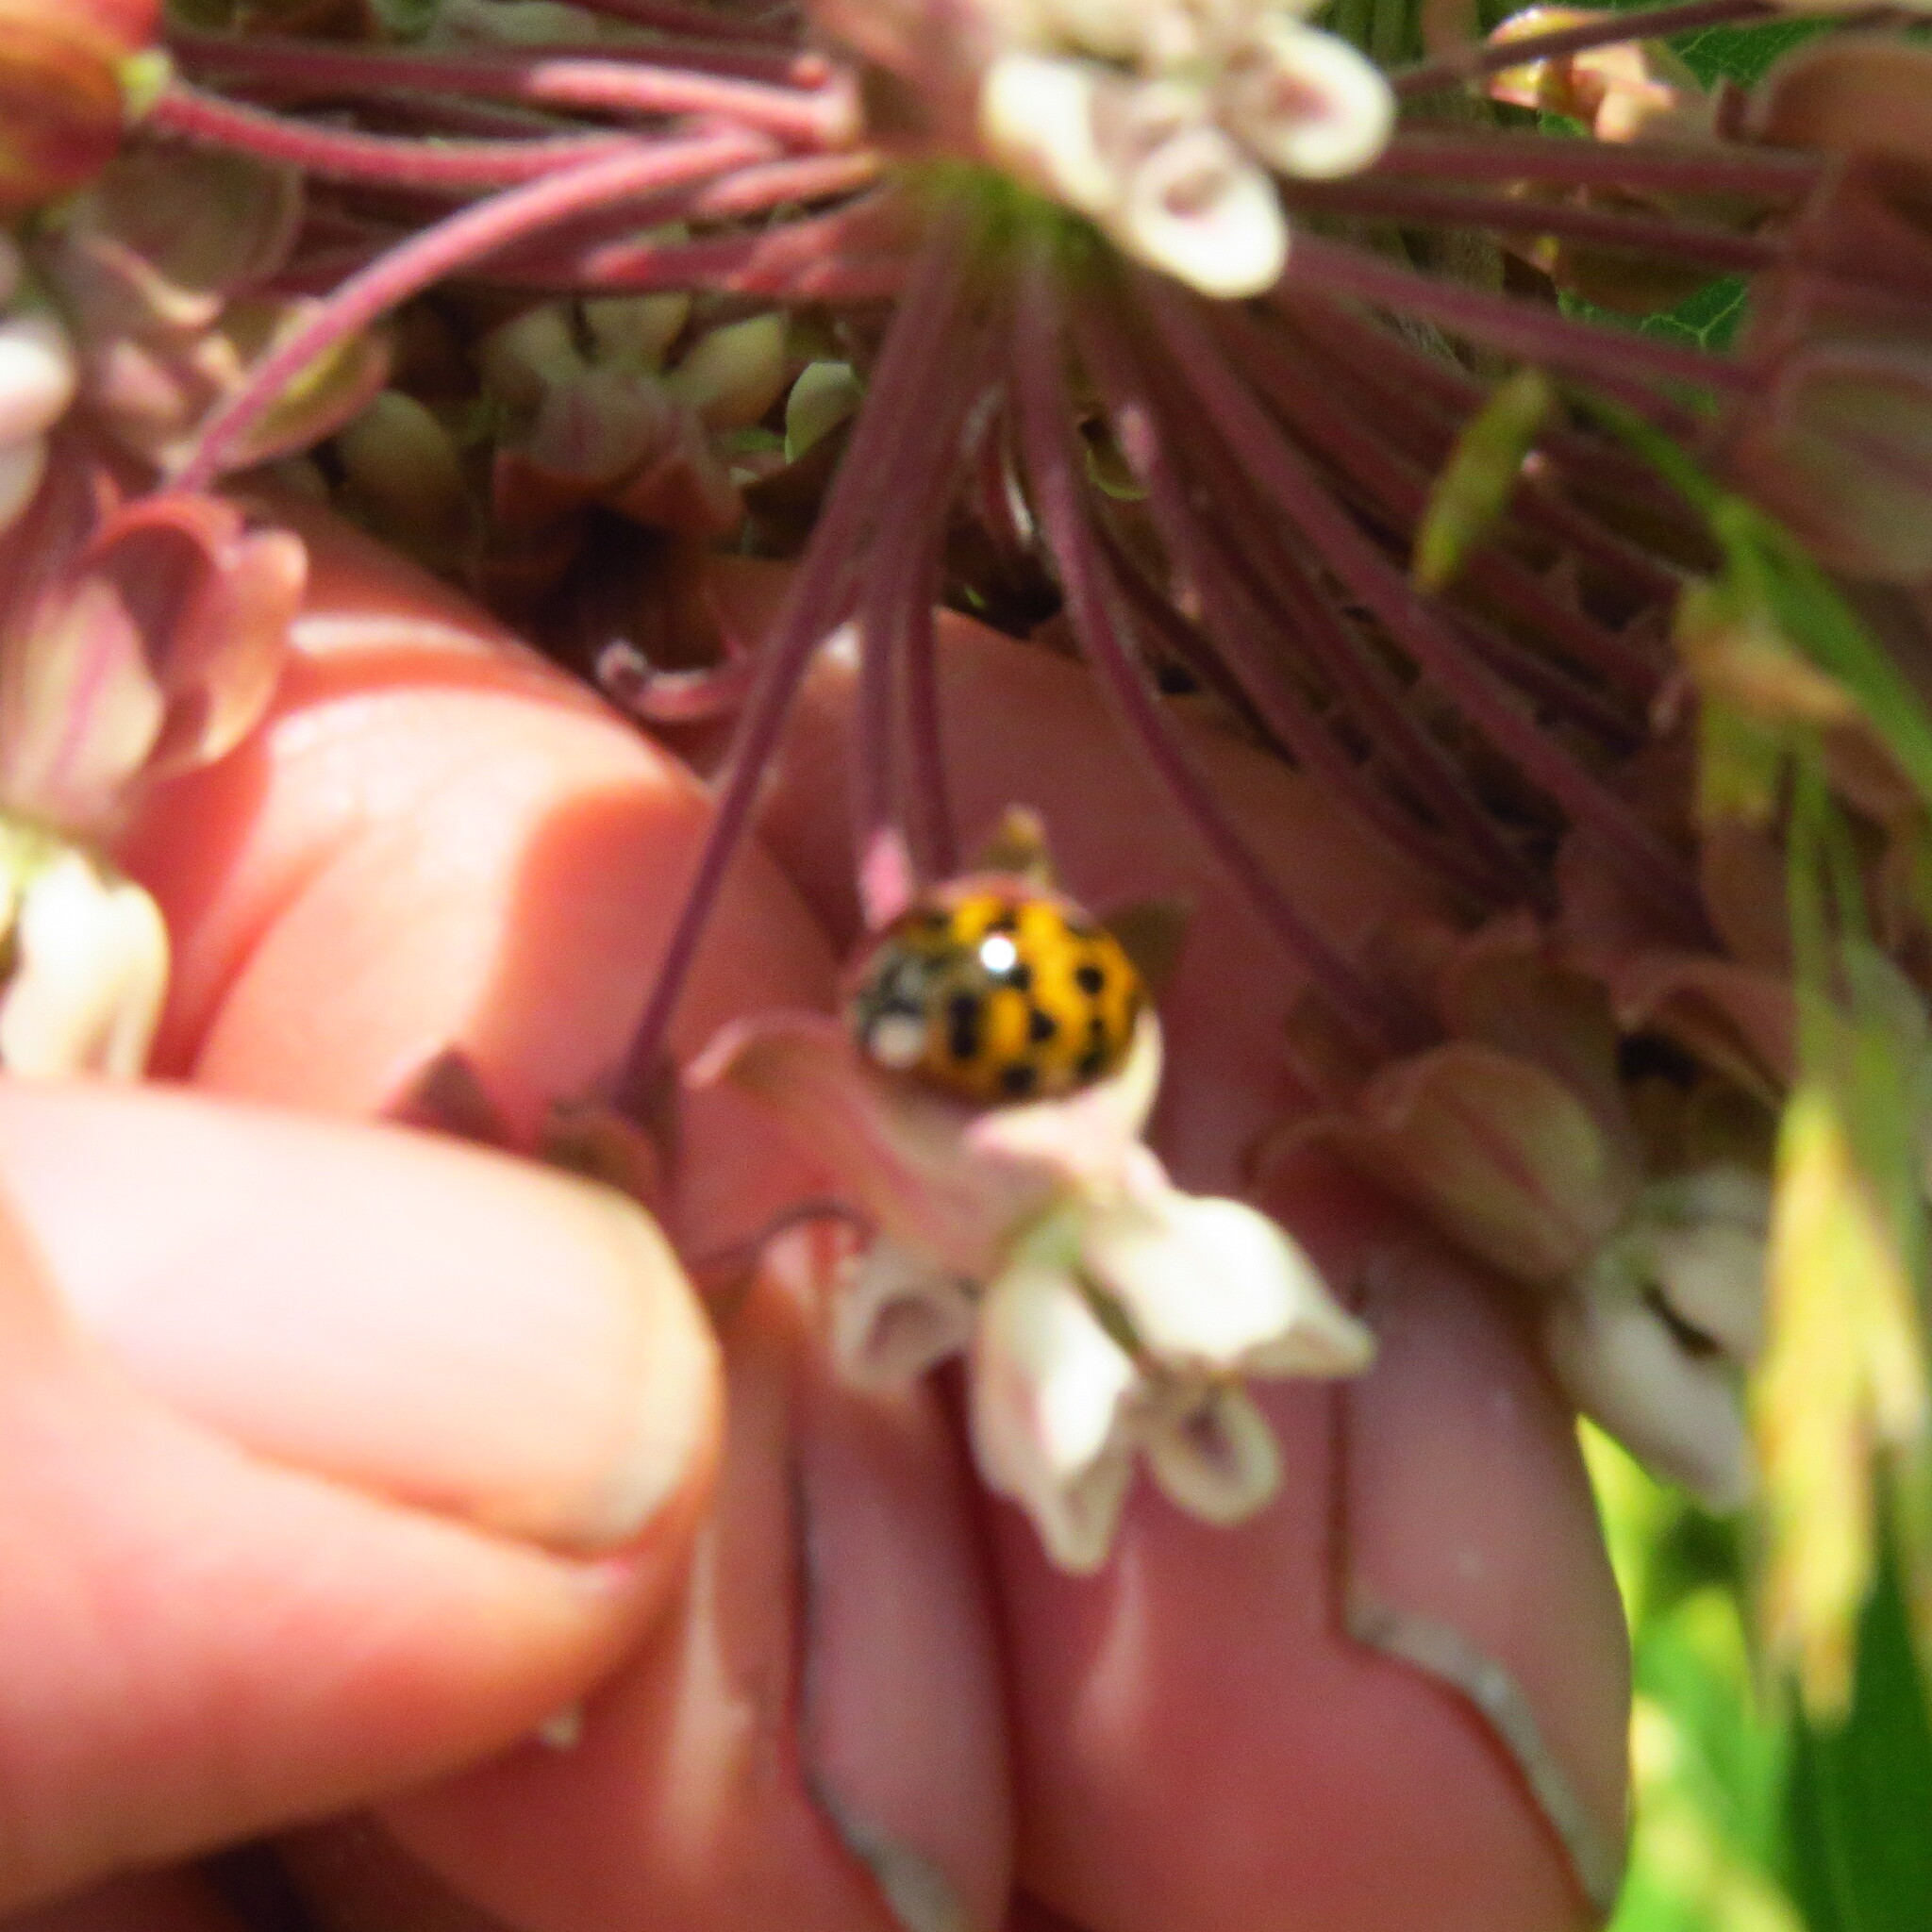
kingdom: Animalia
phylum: Arthropoda
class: Insecta
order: Coleoptera
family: Coccinellidae
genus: Harmonia
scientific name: Harmonia axyridis
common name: Harlequin ladybird
